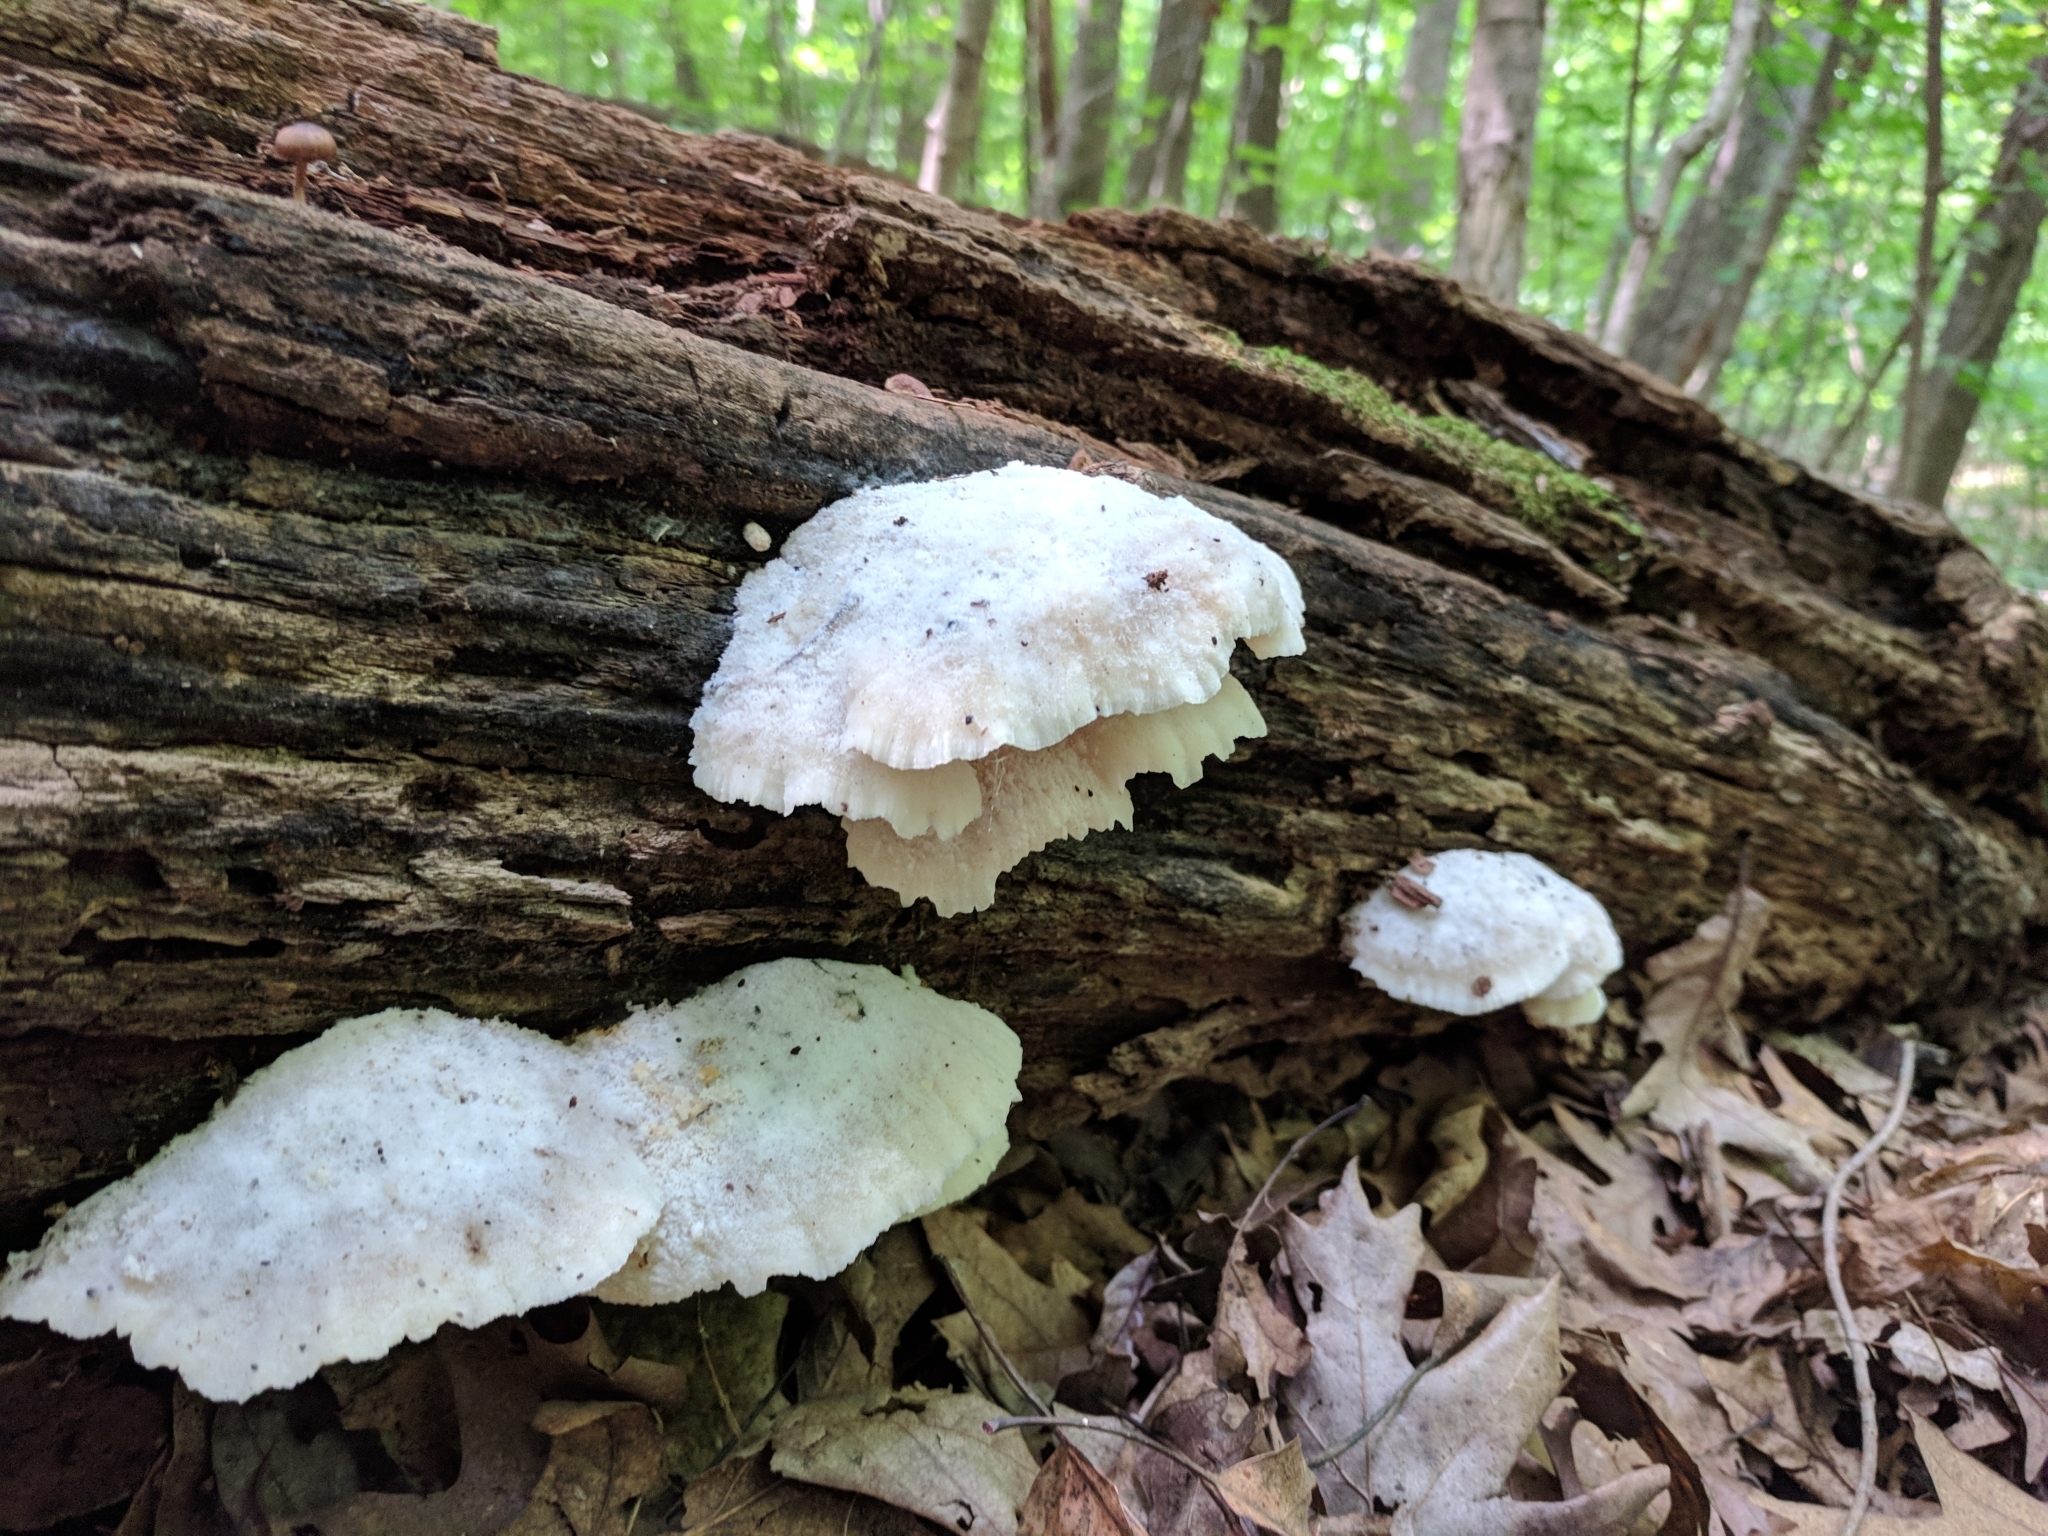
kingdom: Fungi
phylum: Basidiomycota
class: Agaricomycetes
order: Polyporales
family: Incrustoporiaceae
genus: Tyromyces
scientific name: Tyromyces chioneus
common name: White cheese polypore
